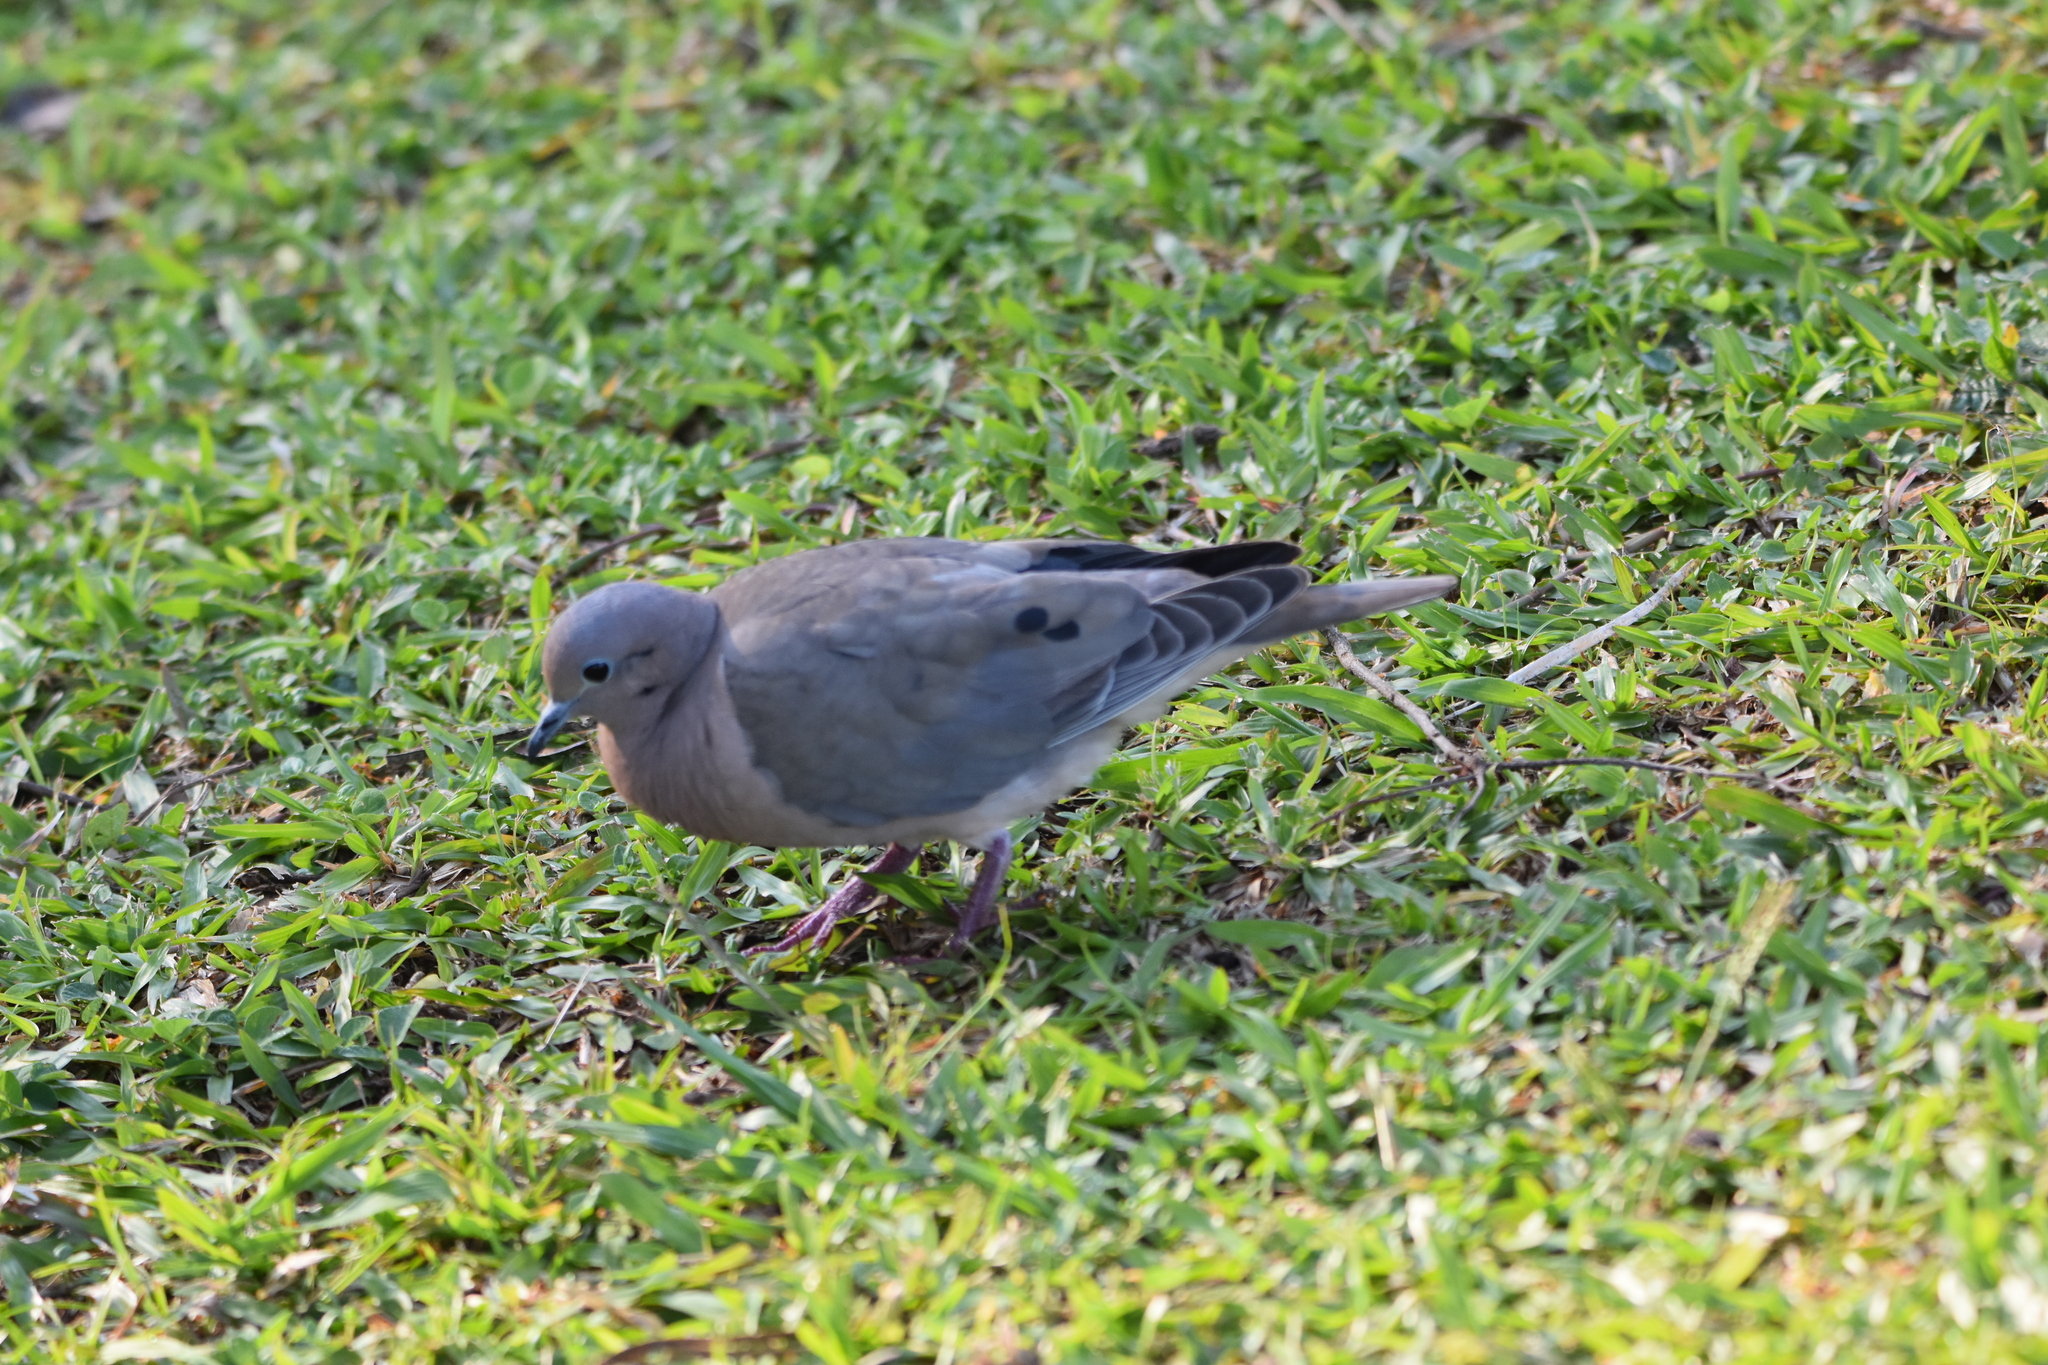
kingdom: Animalia
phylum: Chordata
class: Aves
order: Columbiformes
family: Columbidae
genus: Zenaida
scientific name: Zenaida auriculata
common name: Eared dove
